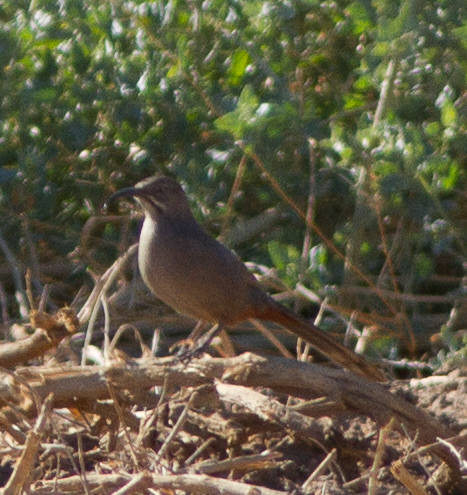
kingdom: Animalia
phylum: Chordata
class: Aves
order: Passeriformes
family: Mimidae
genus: Toxostoma
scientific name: Toxostoma crissale
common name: Crissal thrasher
